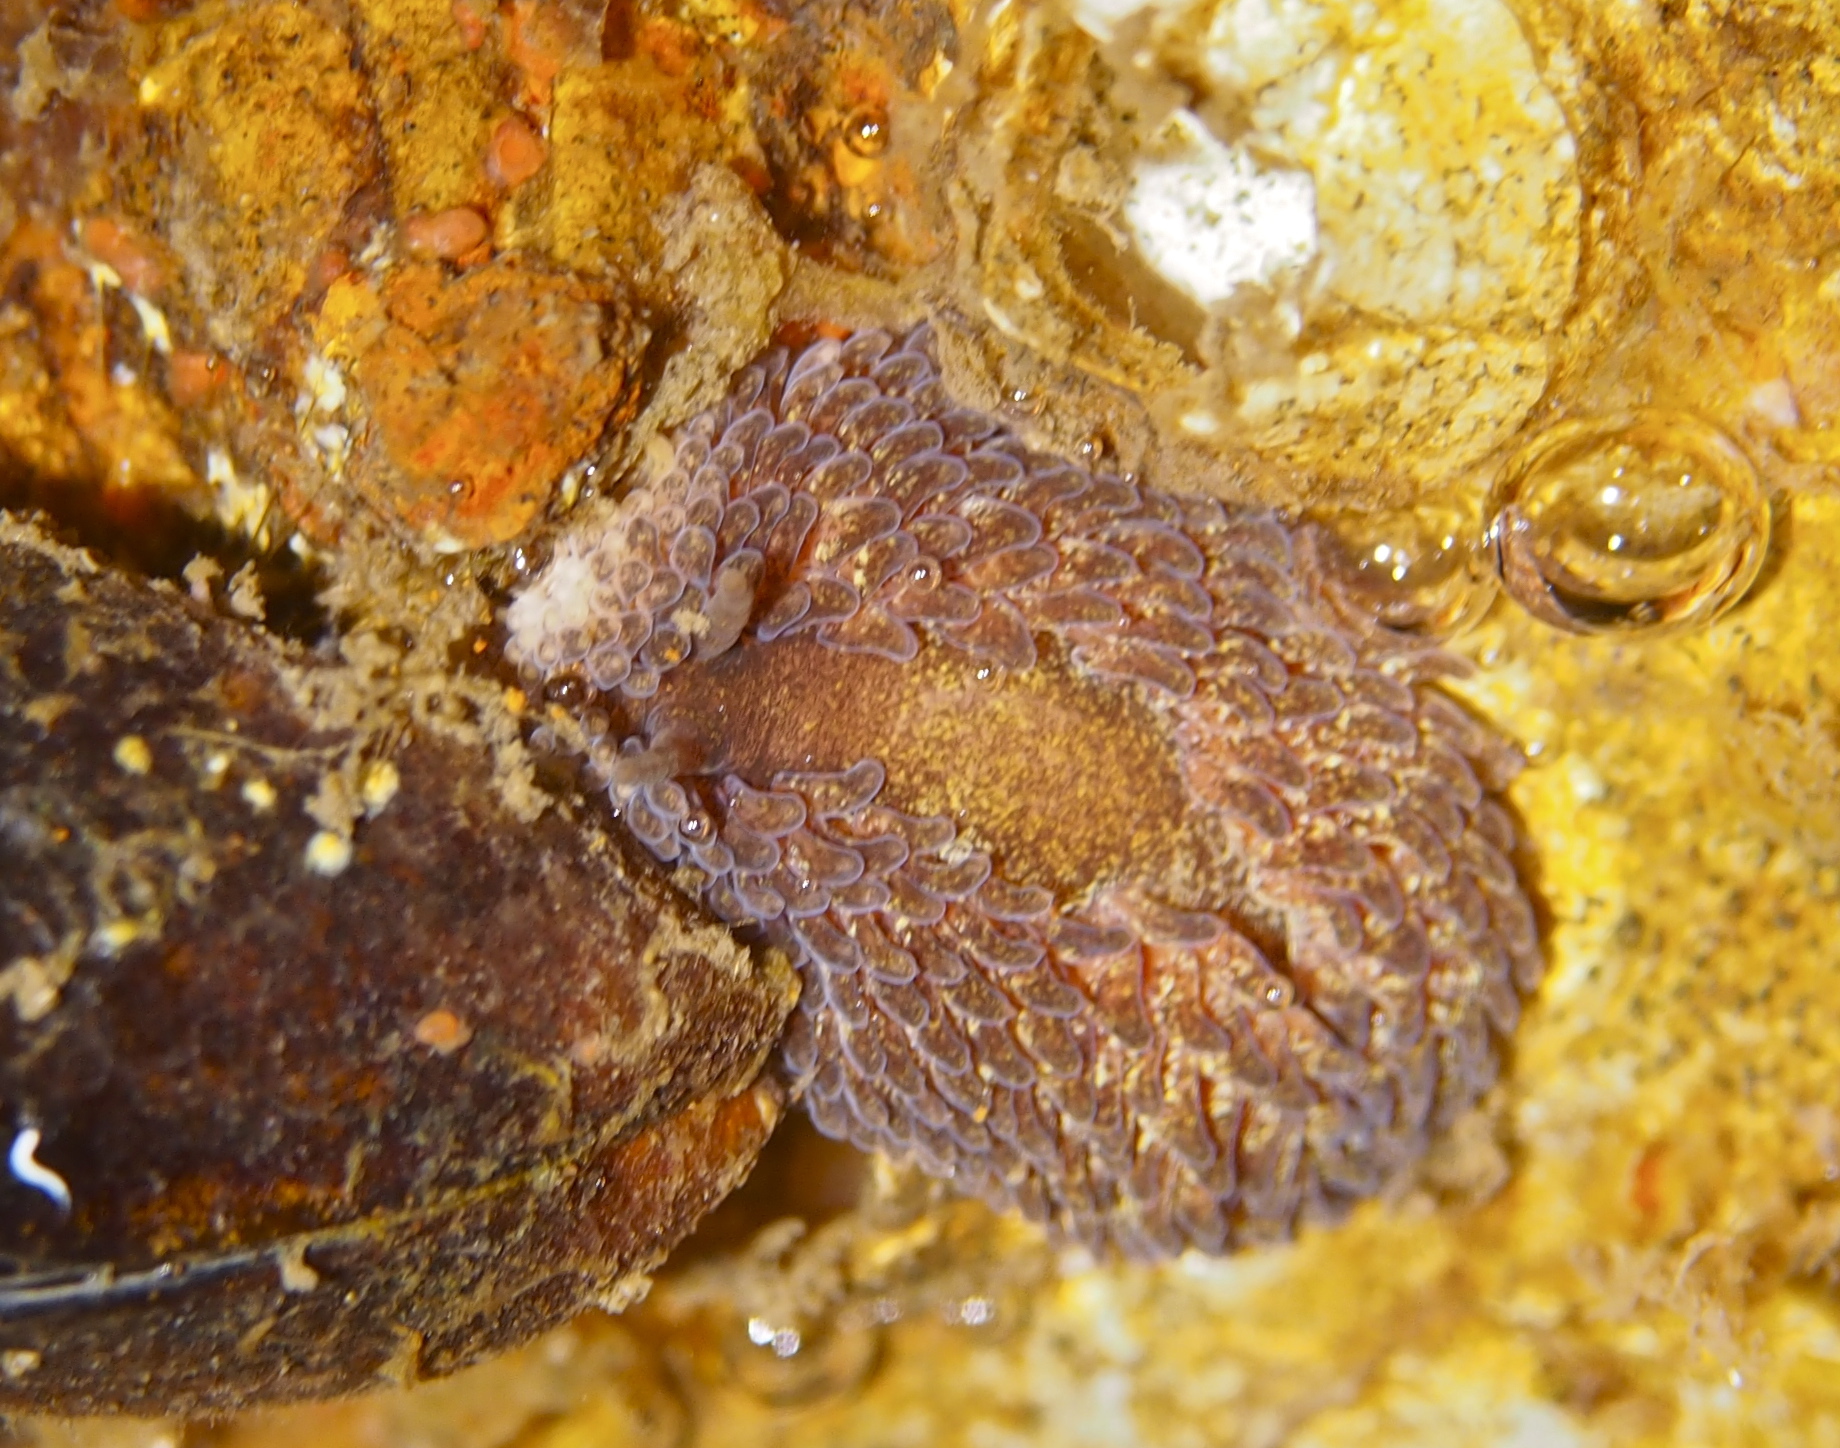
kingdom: Animalia
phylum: Mollusca
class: Gastropoda
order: Nudibranchia
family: Aeolidiidae
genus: Aeolidia
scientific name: Aeolidia papillosa
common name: Common grey sea slug
